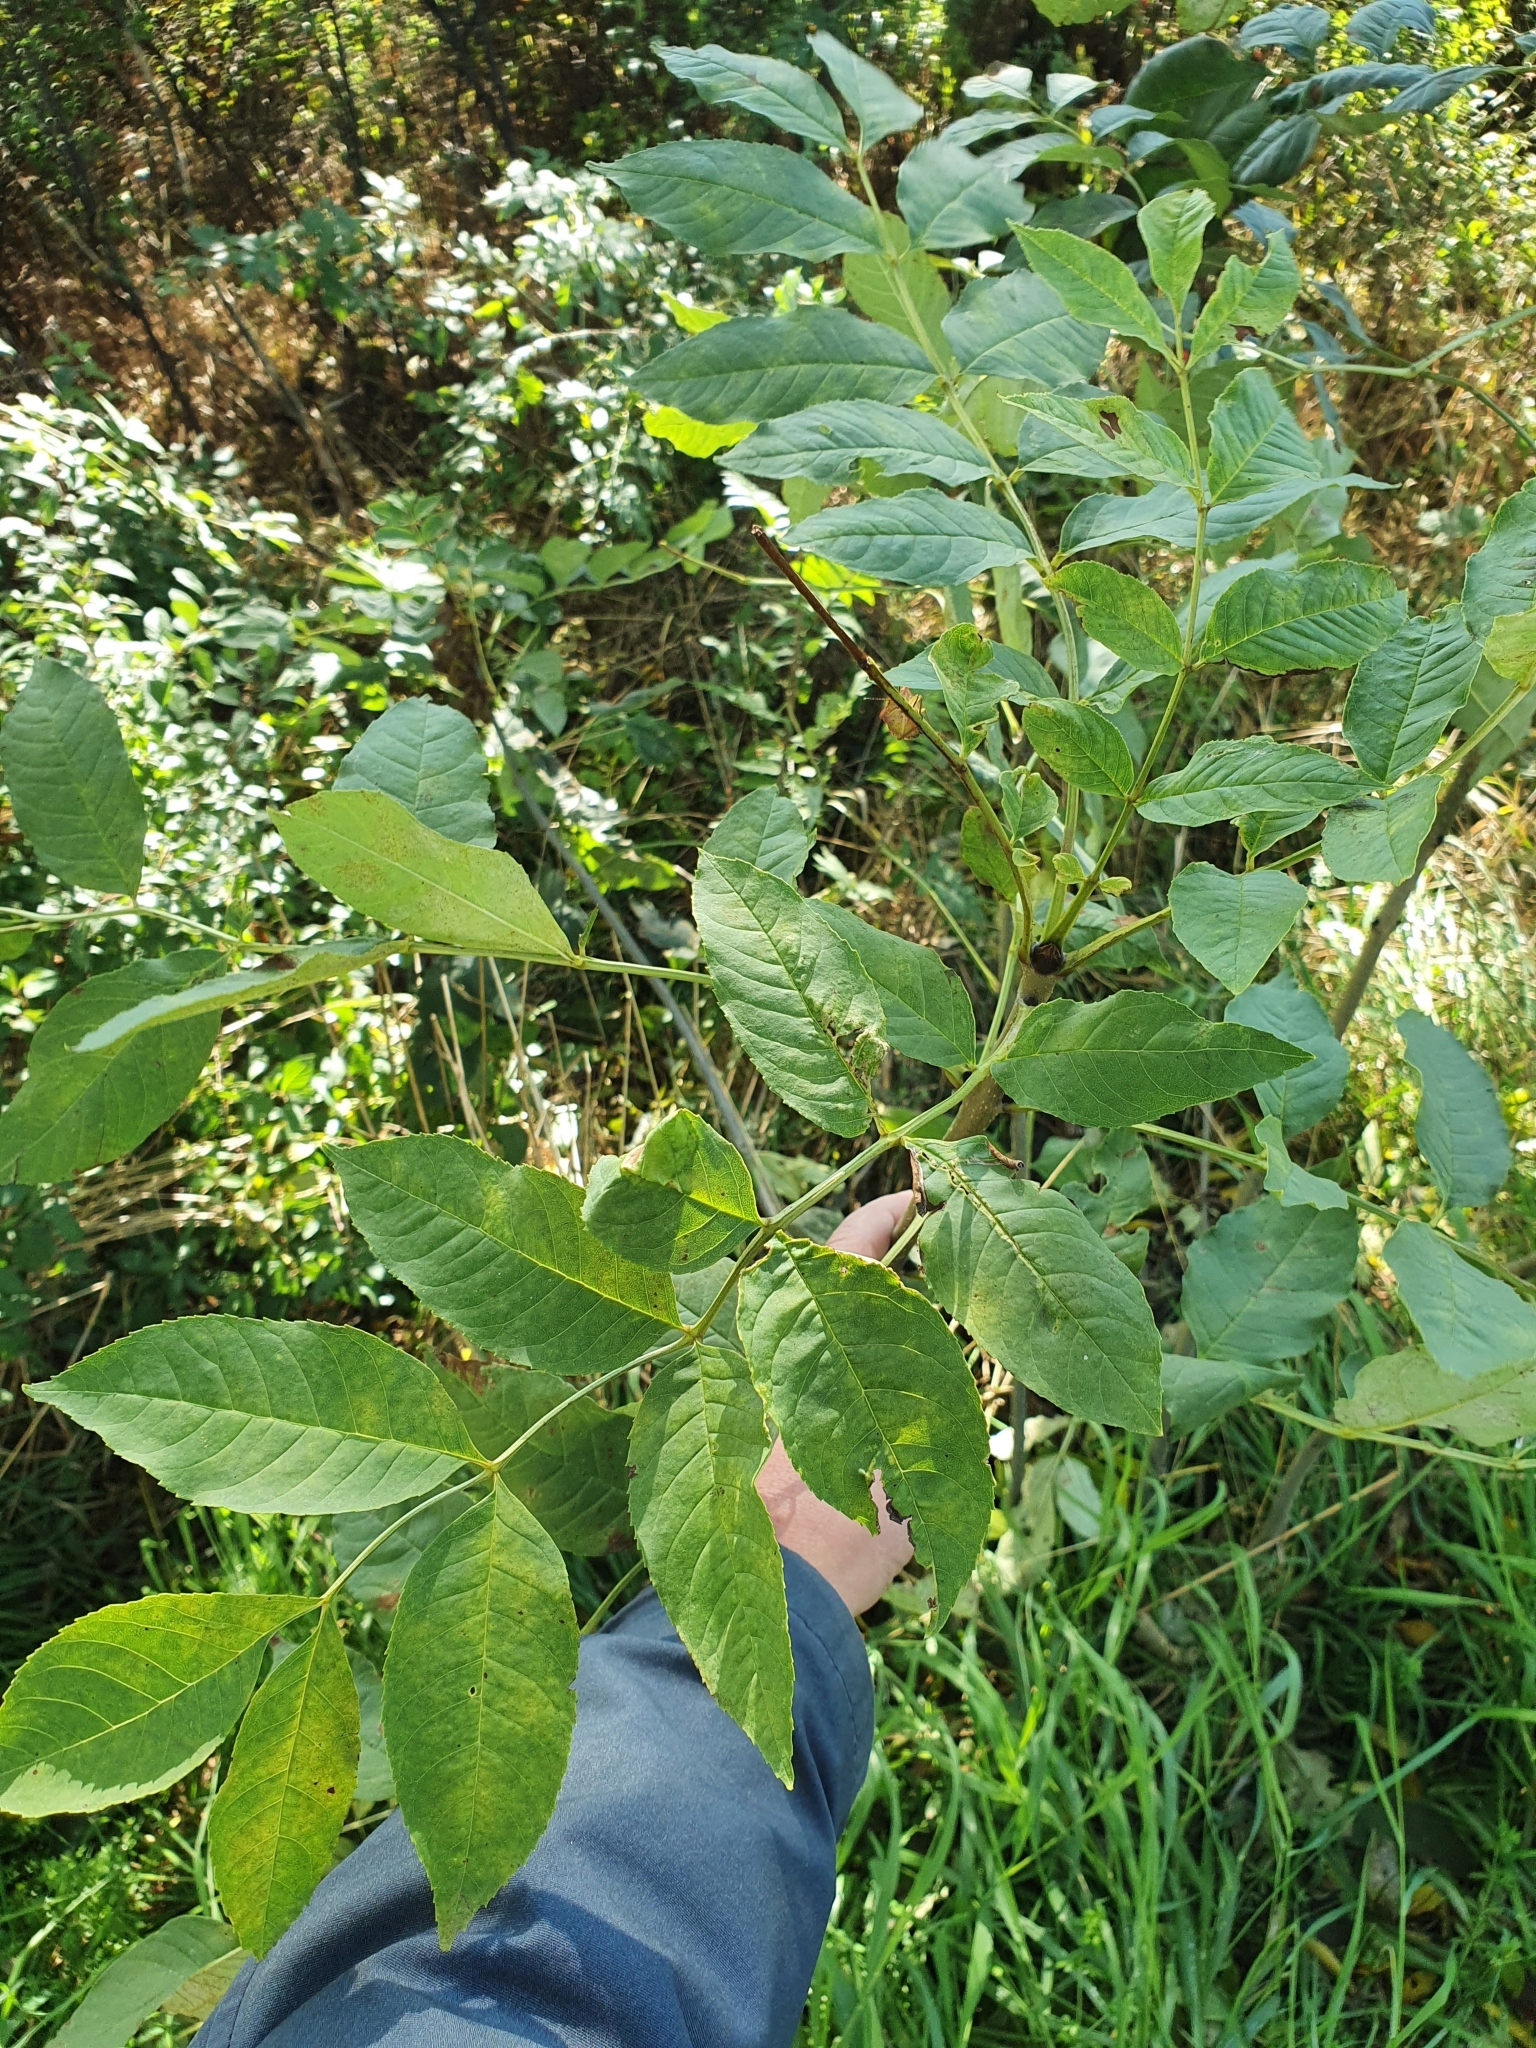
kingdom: Plantae
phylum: Tracheophyta
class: Magnoliopsida
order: Lamiales
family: Oleaceae
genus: Fraxinus
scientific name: Fraxinus excelsior
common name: European ash
